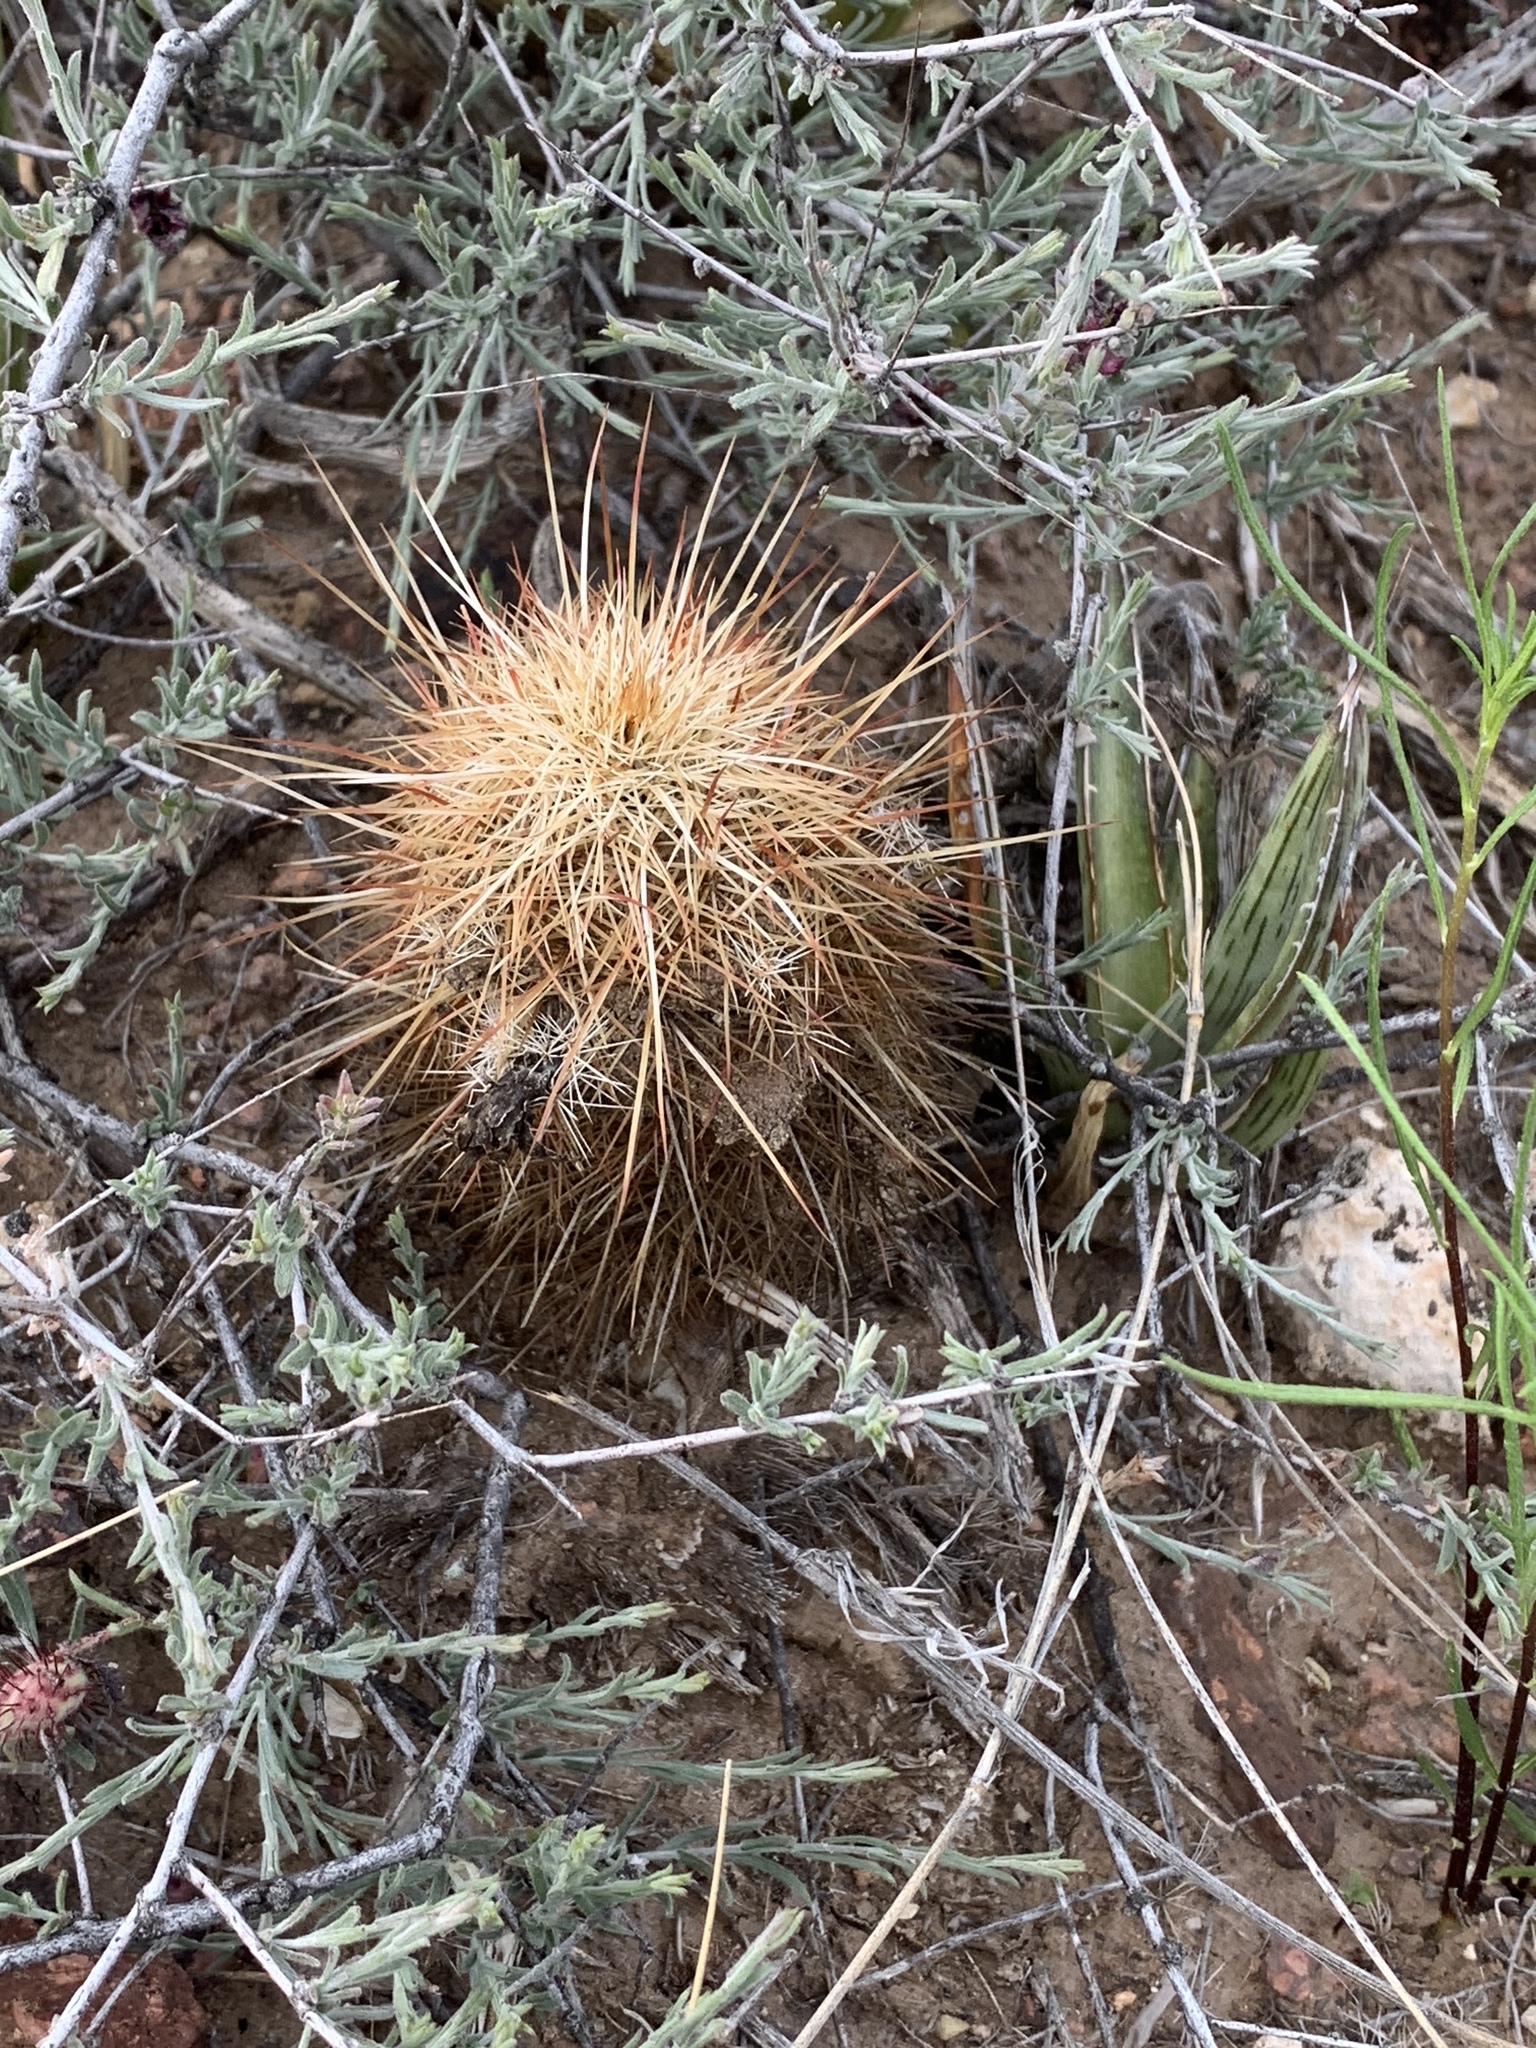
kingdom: Plantae
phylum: Tracheophyta
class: Magnoliopsida
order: Caryophyllales
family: Cactaceae
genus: Echinocereus
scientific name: Echinocereus viridiflorus
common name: Nylon hedgehog cactus
